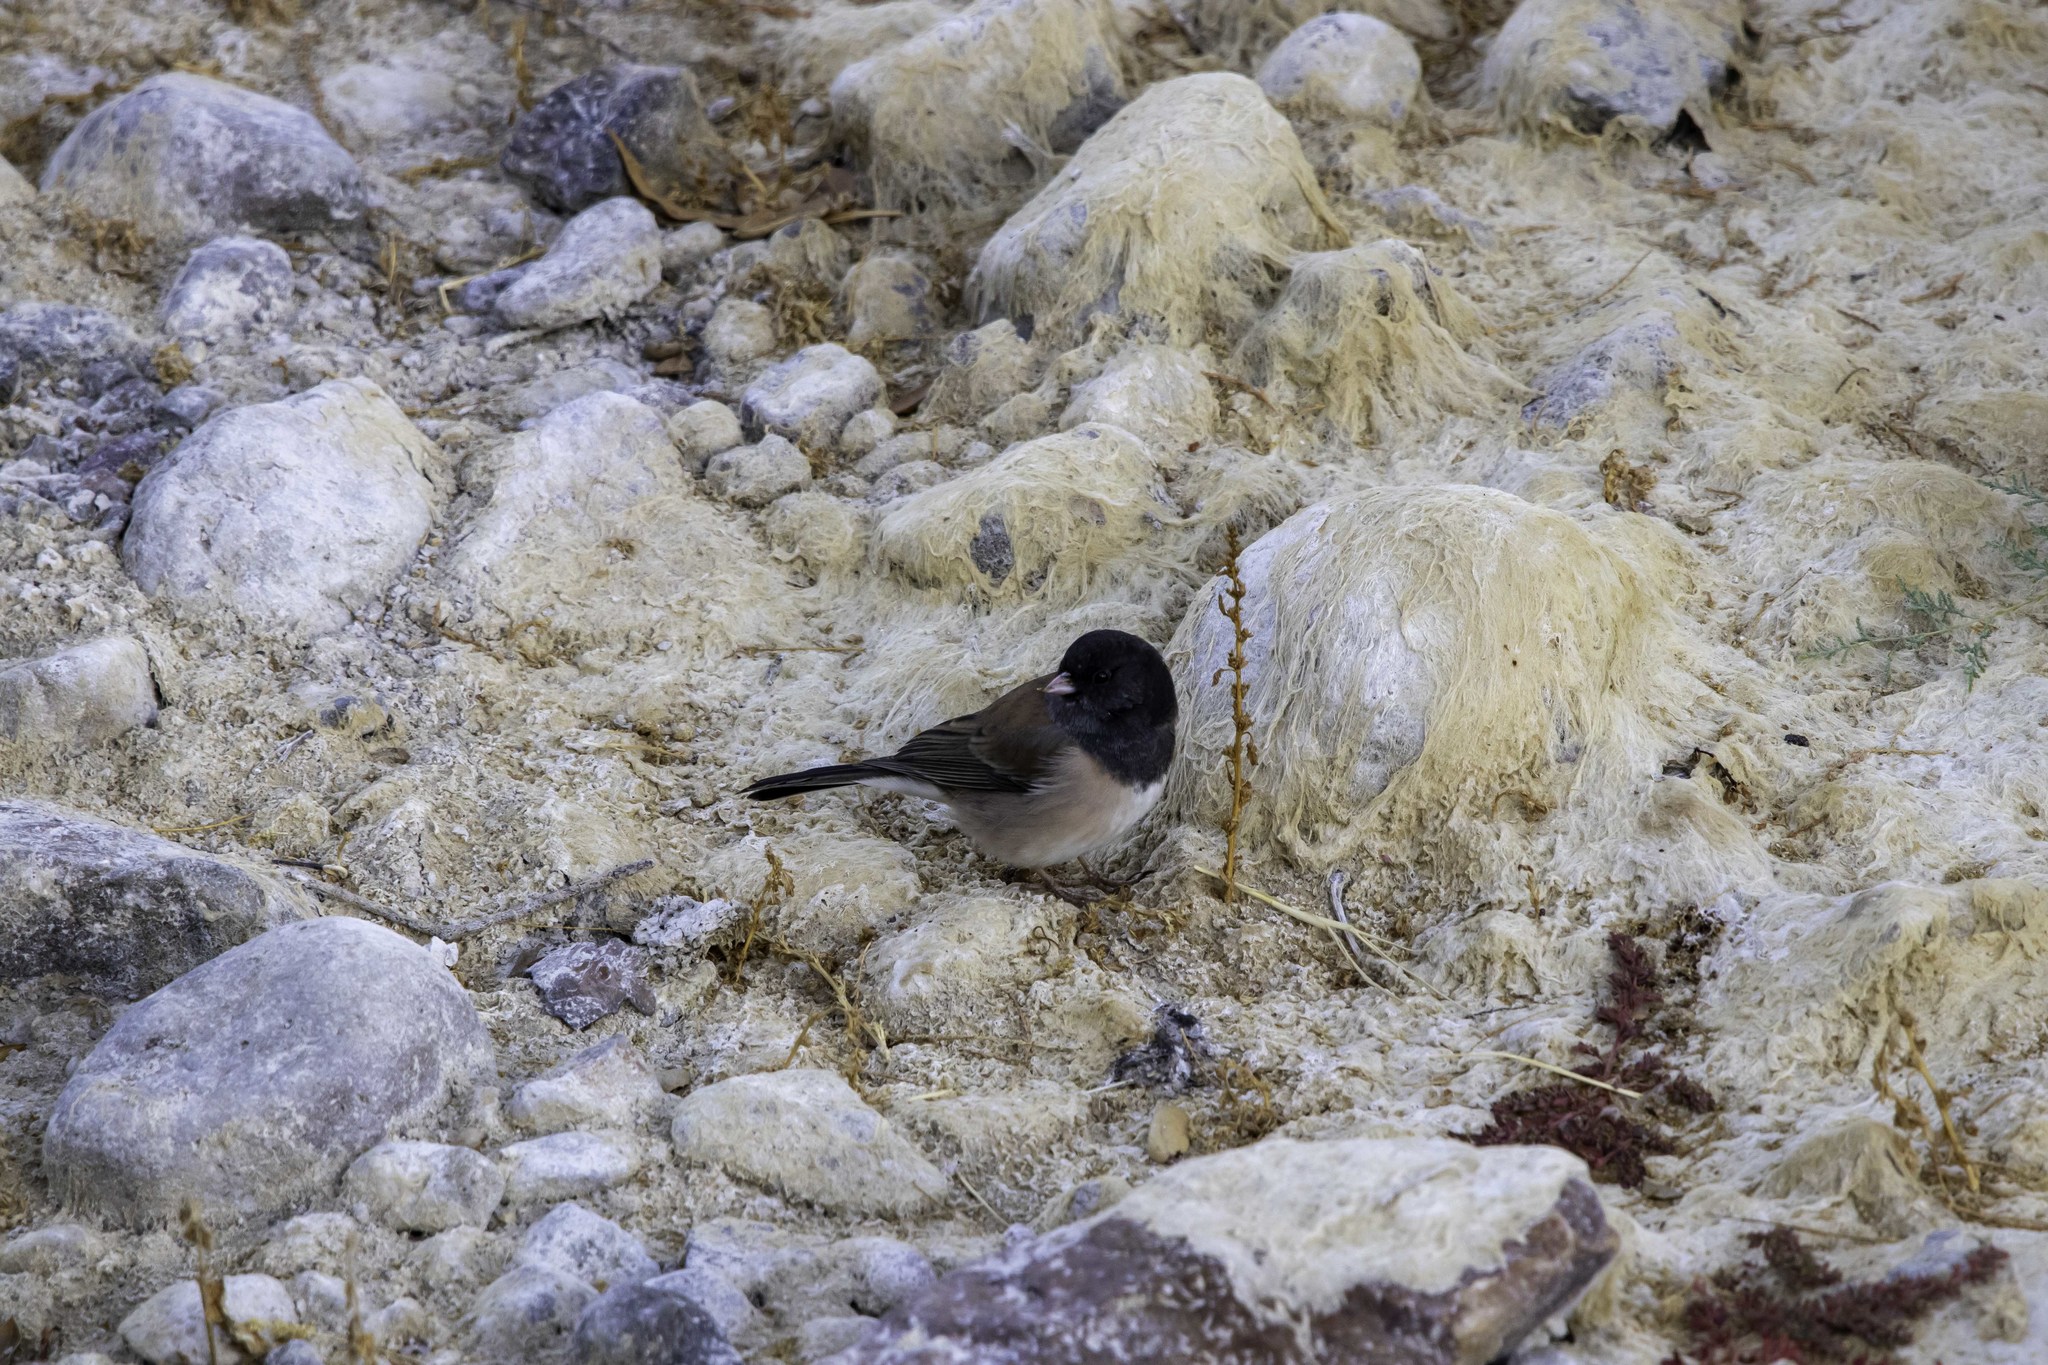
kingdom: Animalia
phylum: Chordata
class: Aves
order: Passeriformes
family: Passerellidae
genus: Junco
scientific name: Junco hyemalis
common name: Dark-eyed junco
